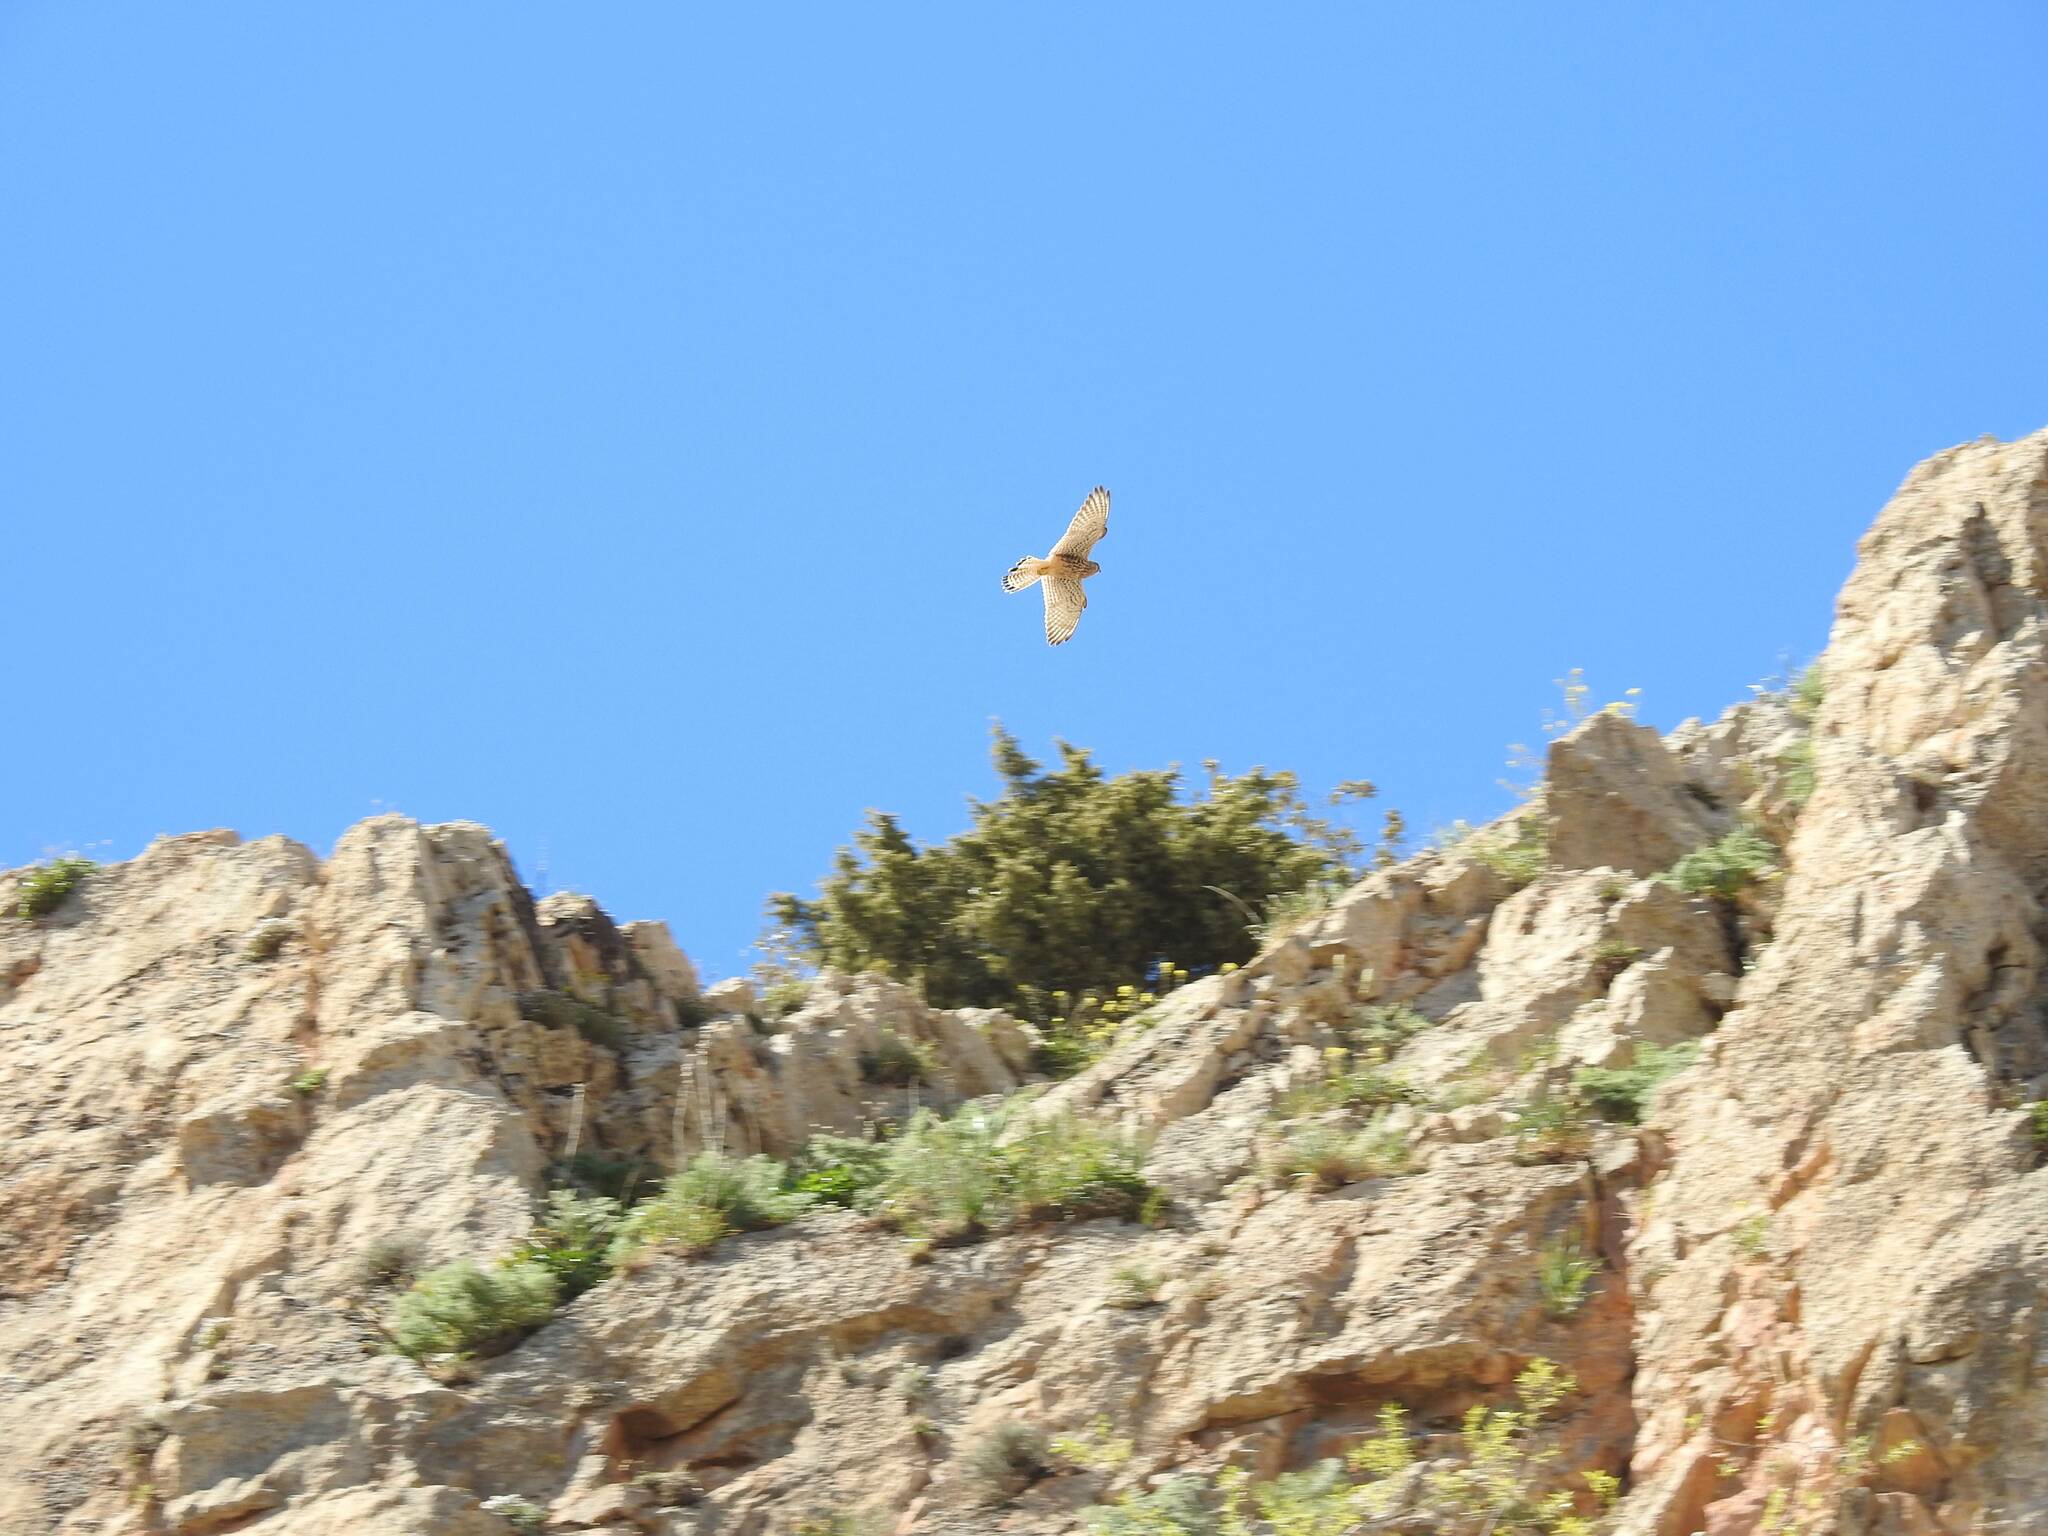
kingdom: Animalia
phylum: Chordata
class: Aves
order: Falconiformes
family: Falconidae
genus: Falco
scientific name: Falco naumanni
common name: Lesser kestrel
